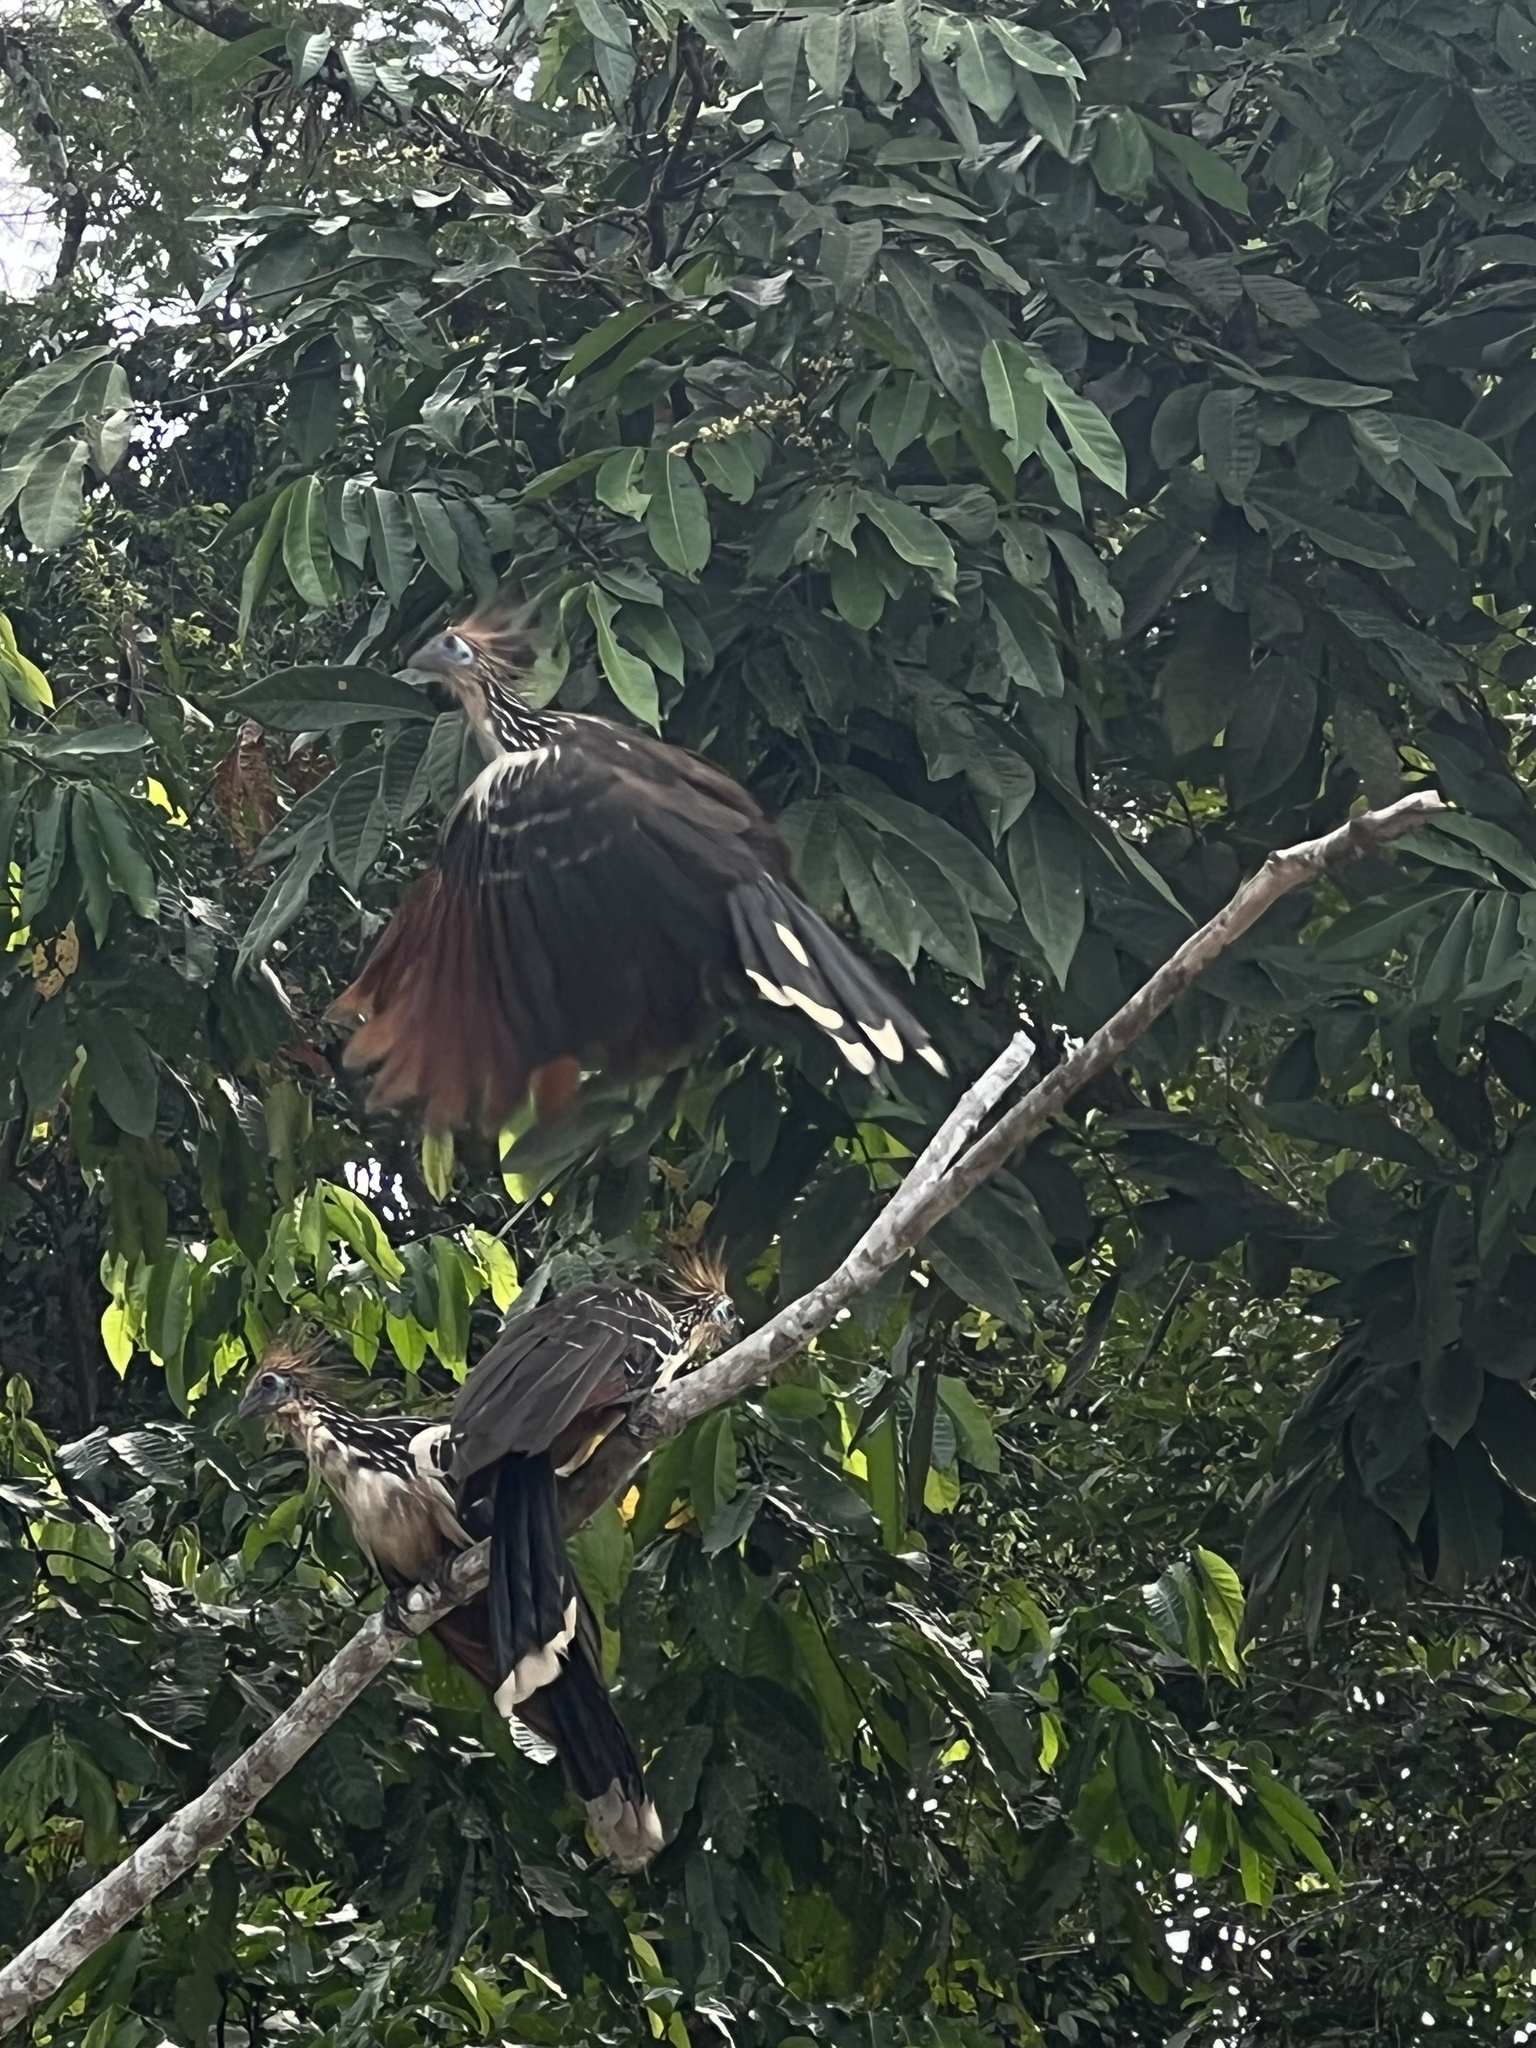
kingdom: Animalia
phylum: Chordata
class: Aves
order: Opisthocomiformes
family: Opisthocomidae
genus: Opisthocomus
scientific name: Opisthocomus hoazin
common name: Hoatzin
